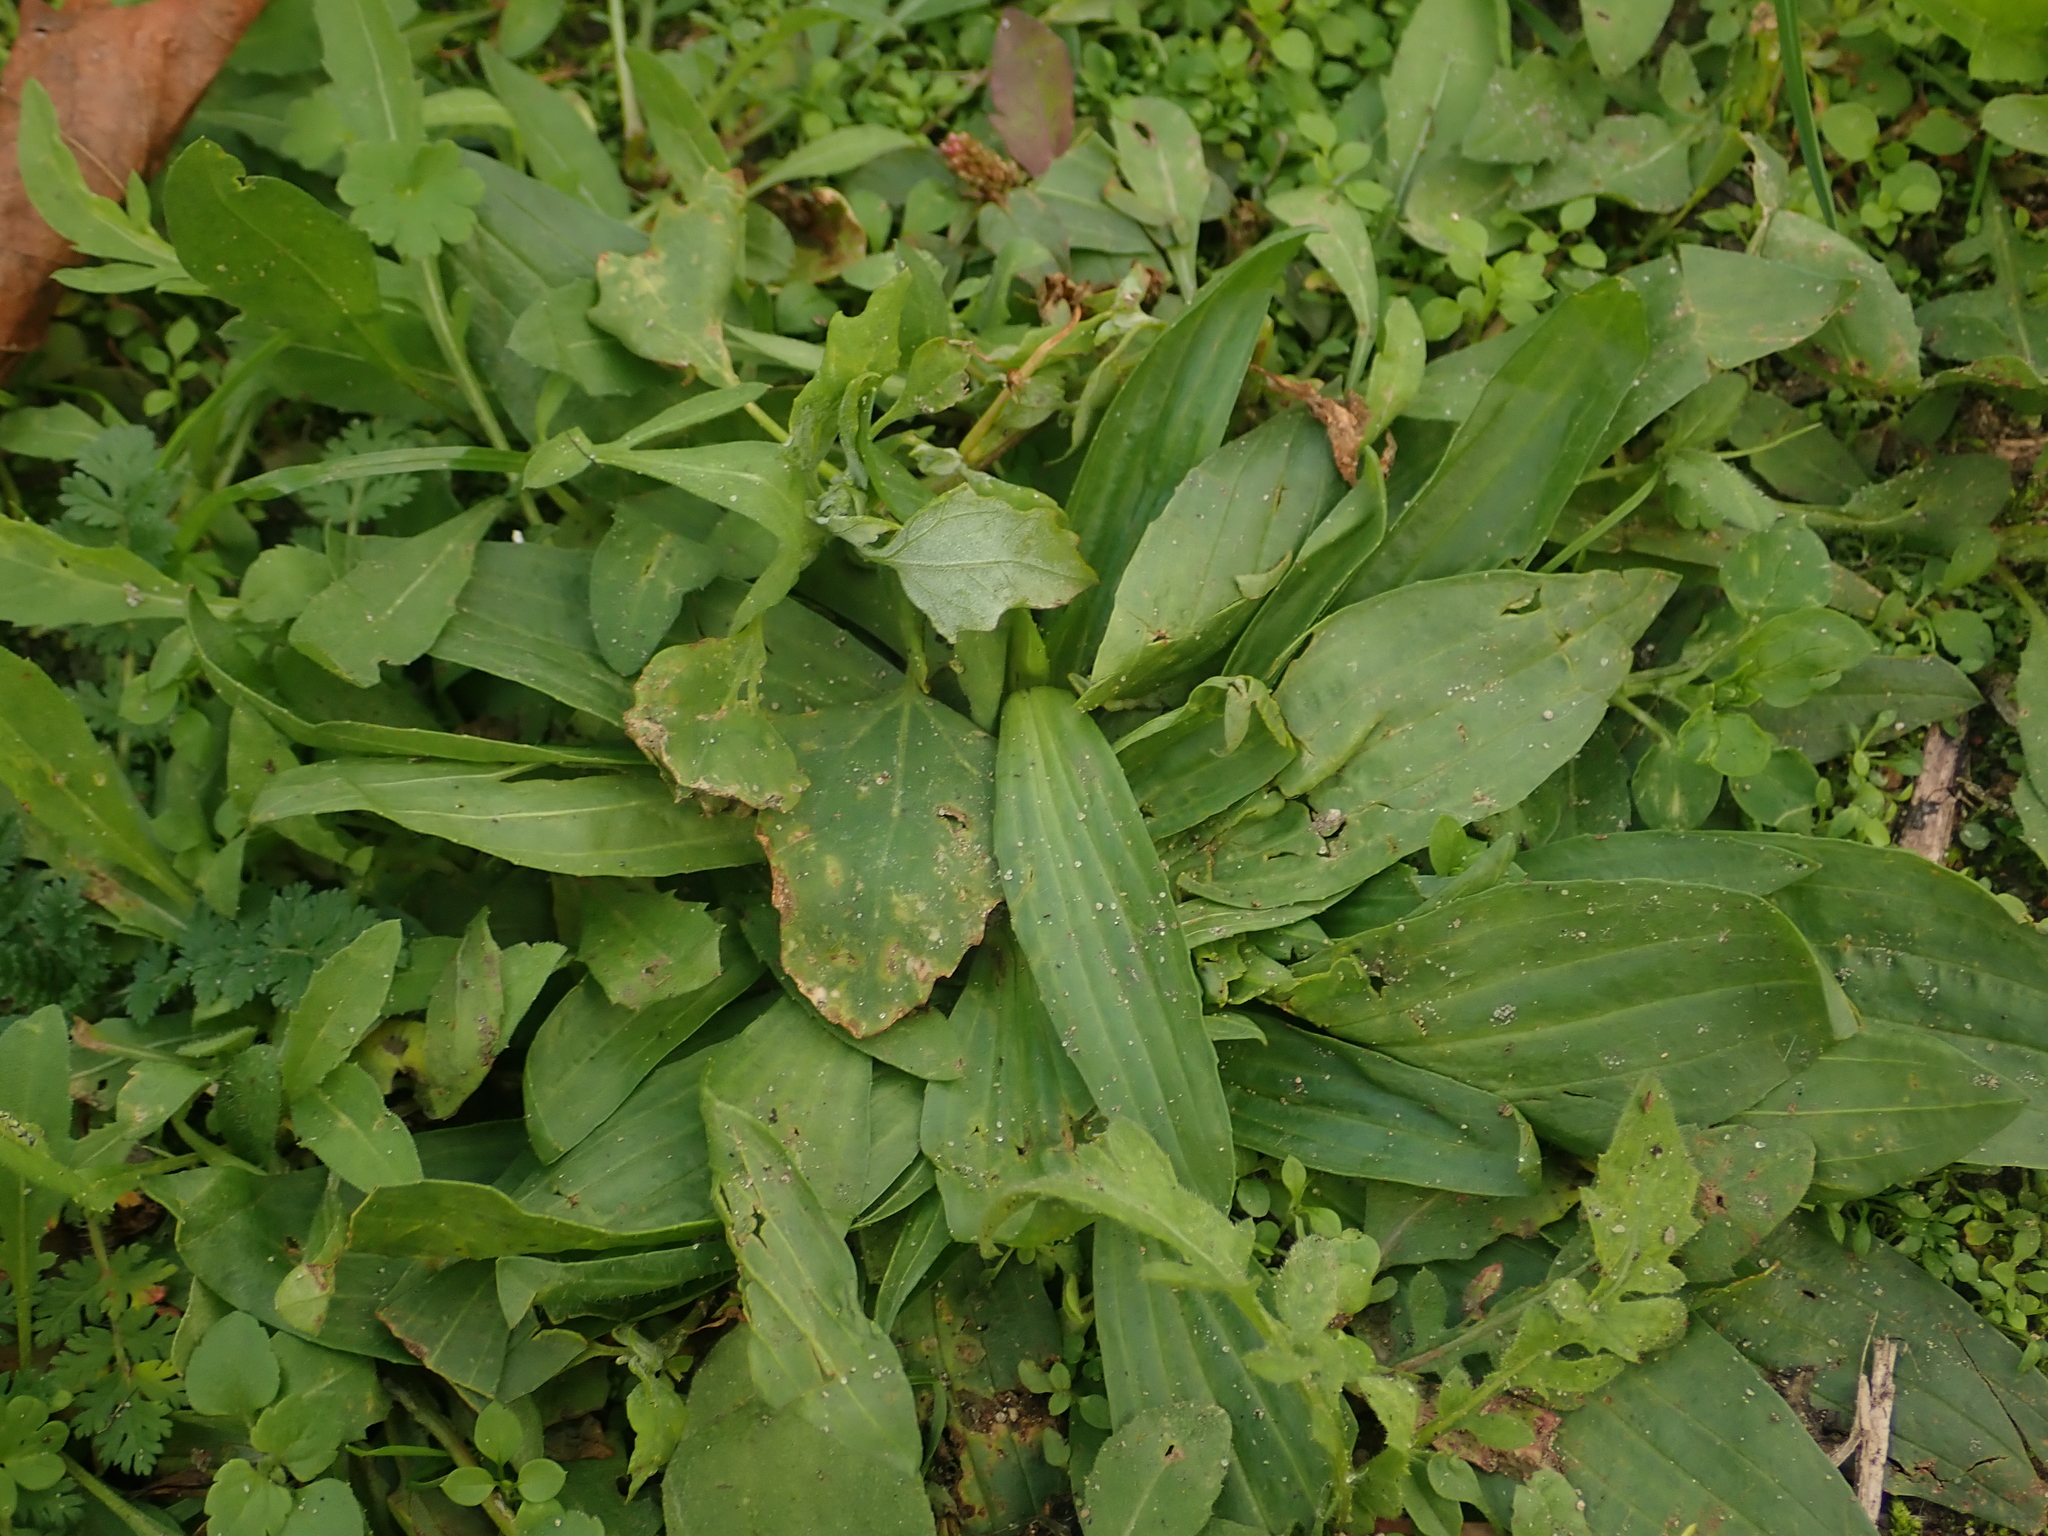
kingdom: Plantae
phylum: Tracheophyta
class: Magnoliopsida
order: Lamiales
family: Plantaginaceae
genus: Plantago
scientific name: Plantago lanceolata
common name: Ribwort plantain
